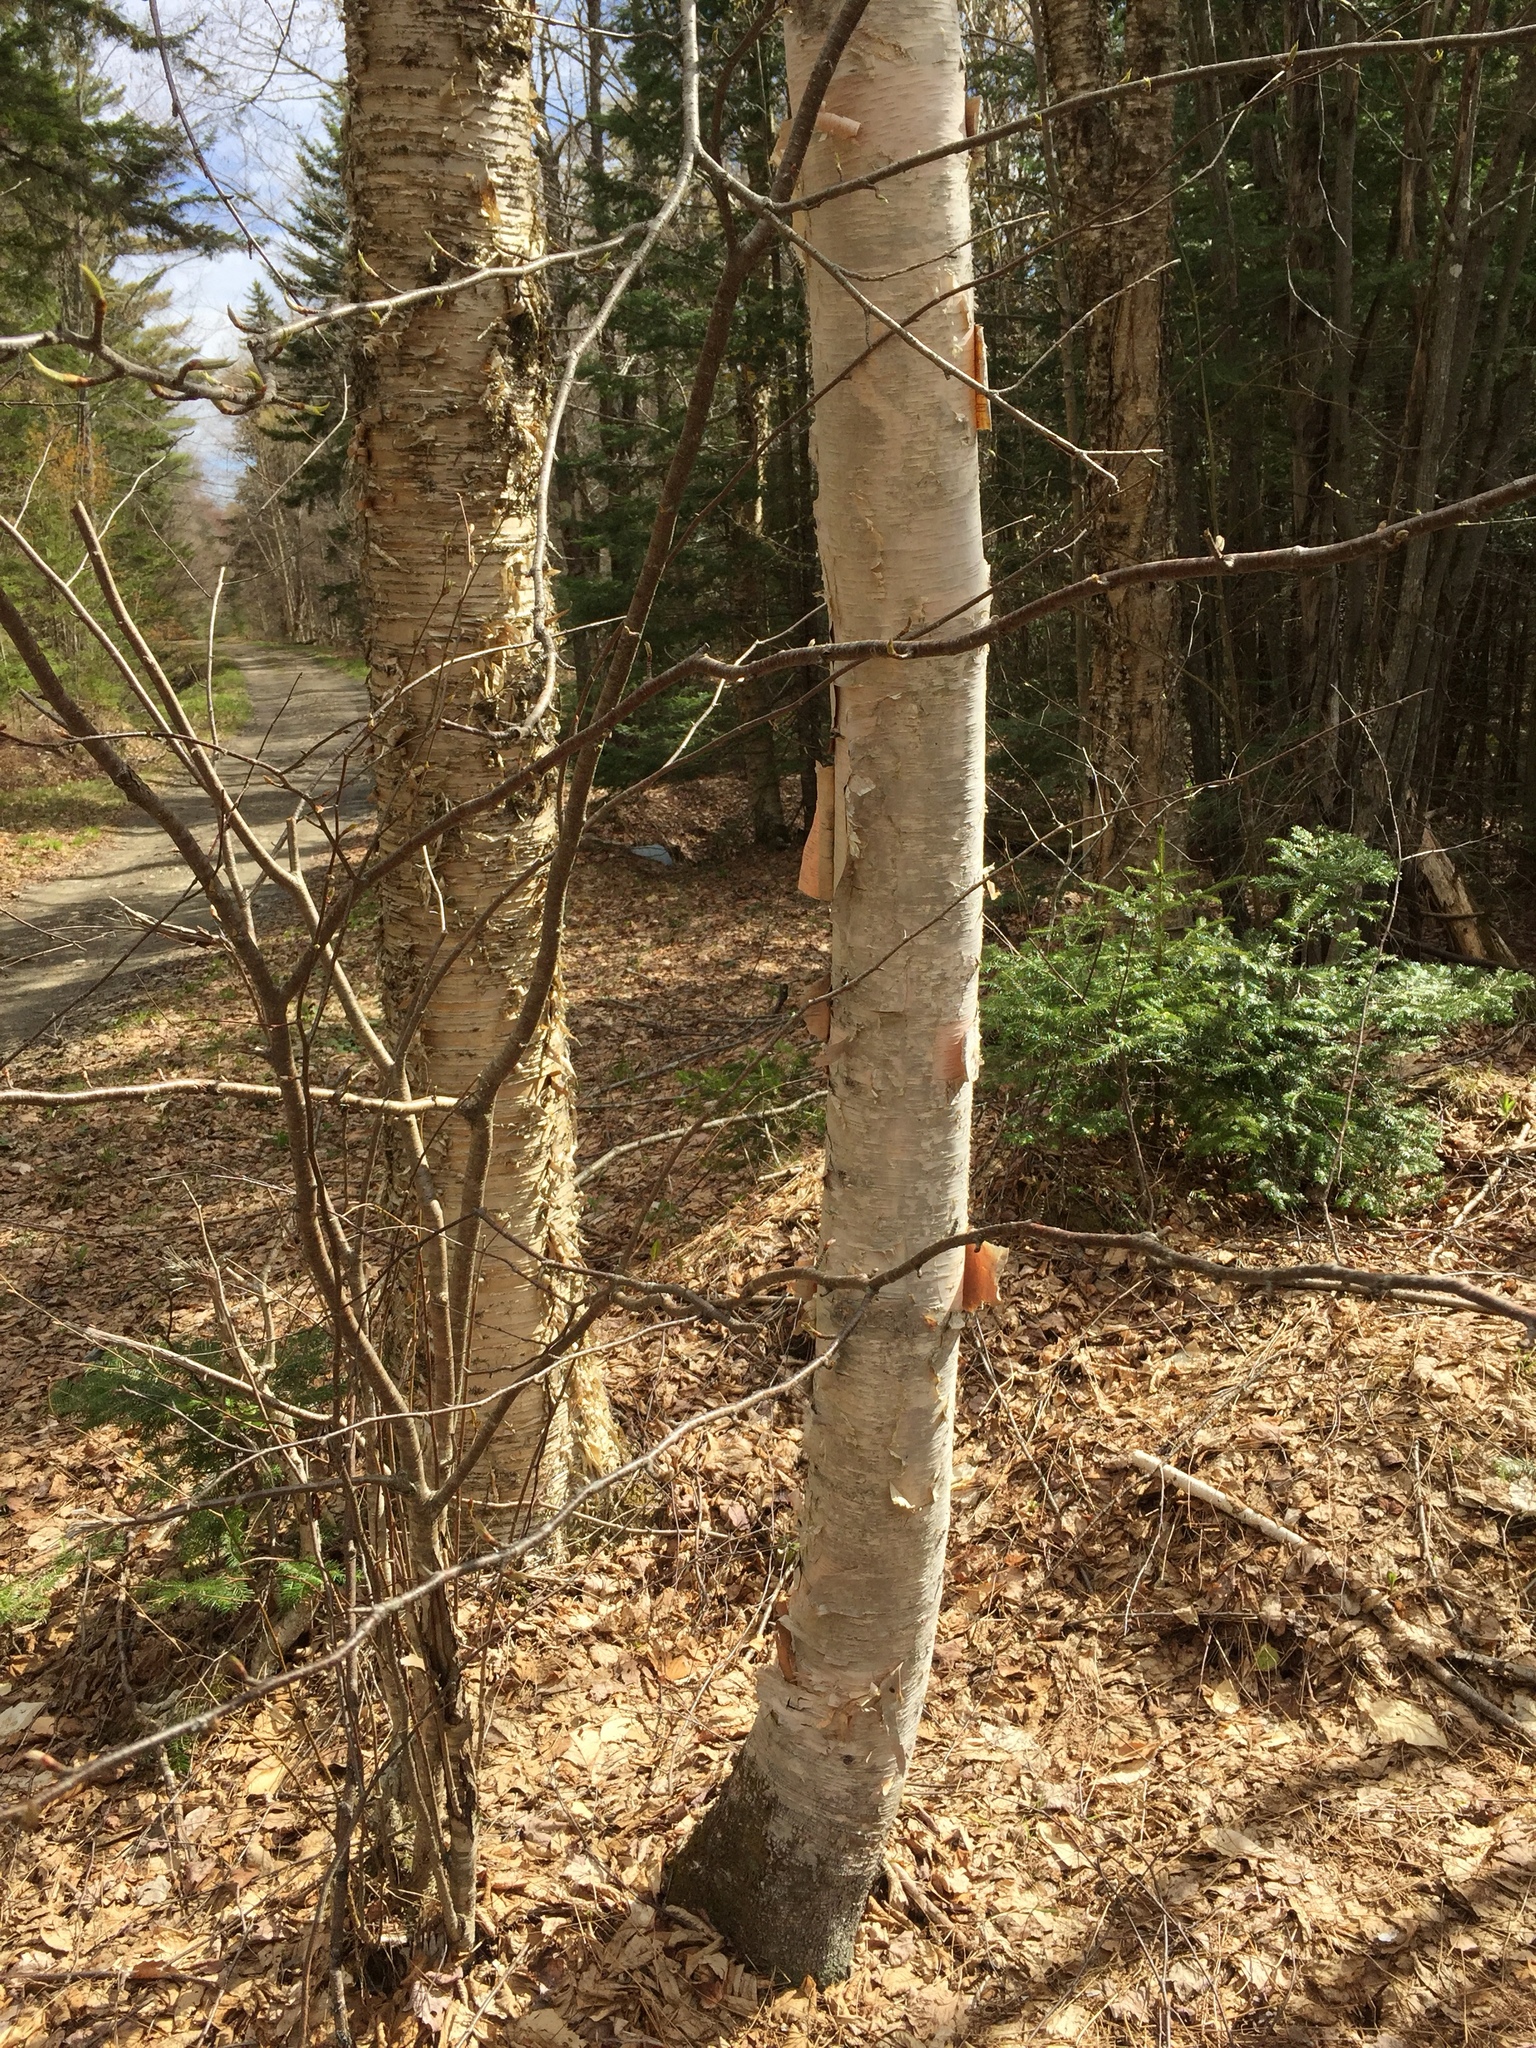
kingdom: Plantae
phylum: Tracheophyta
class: Magnoliopsida
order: Fagales
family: Betulaceae
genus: Betula
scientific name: Betula alleghaniensis
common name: Yellow birch
